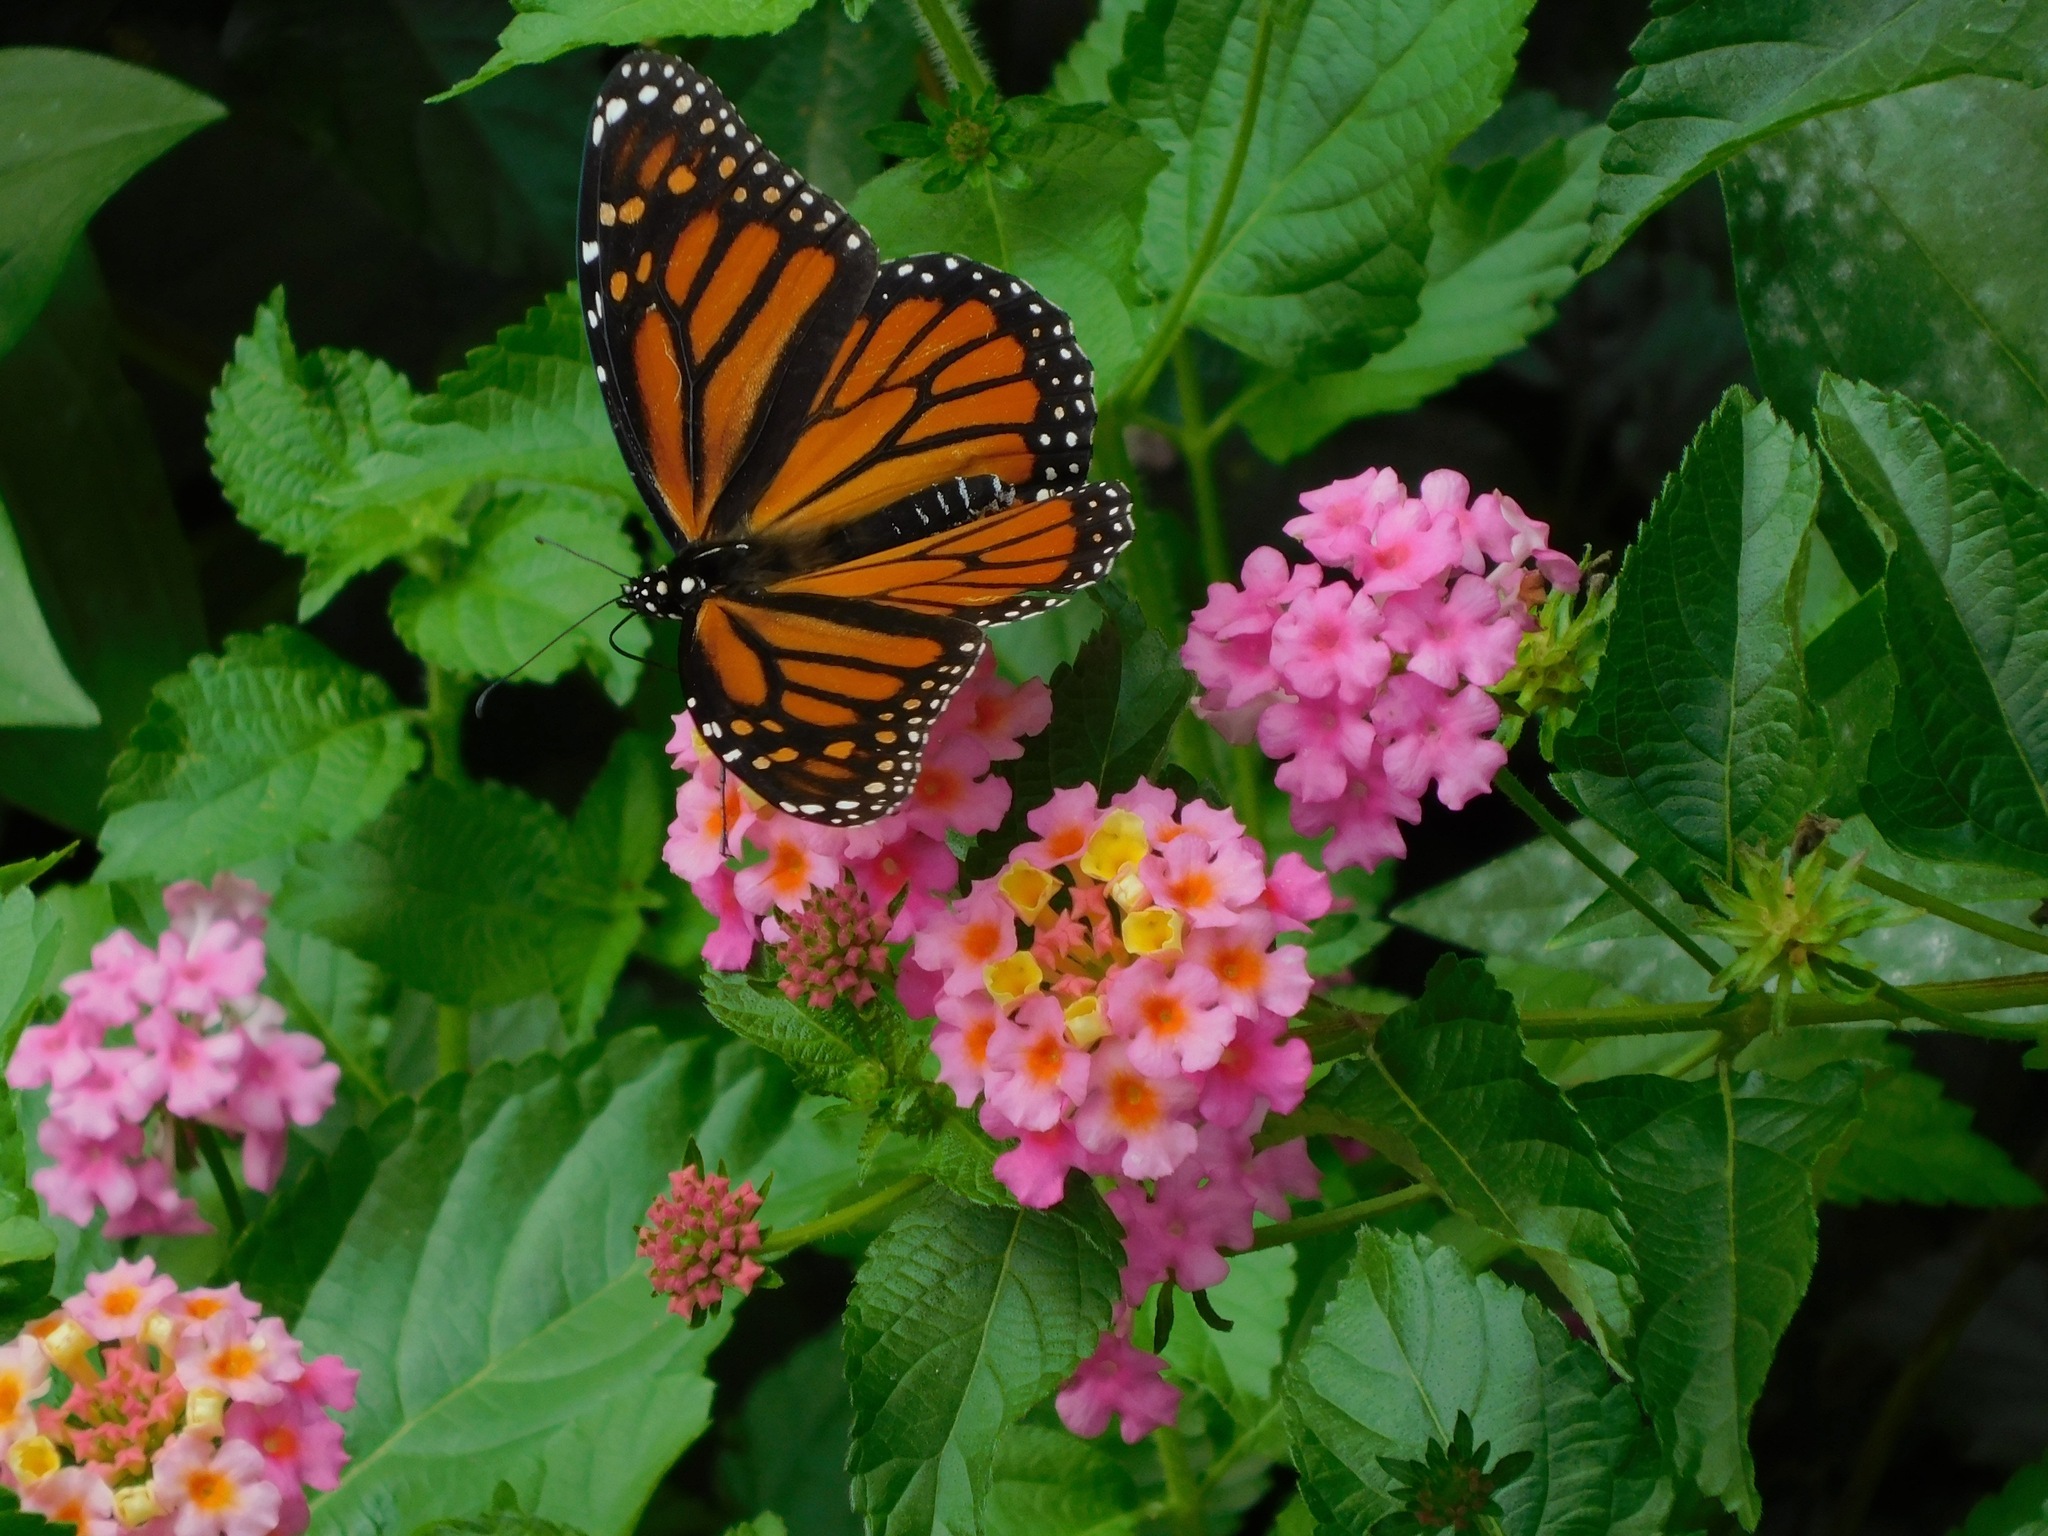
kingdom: Animalia
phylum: Arthropoda
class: Insecta
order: Lepidoptera
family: Nymphalidae
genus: Danaus
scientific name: Danaus plexippus
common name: Monarch
